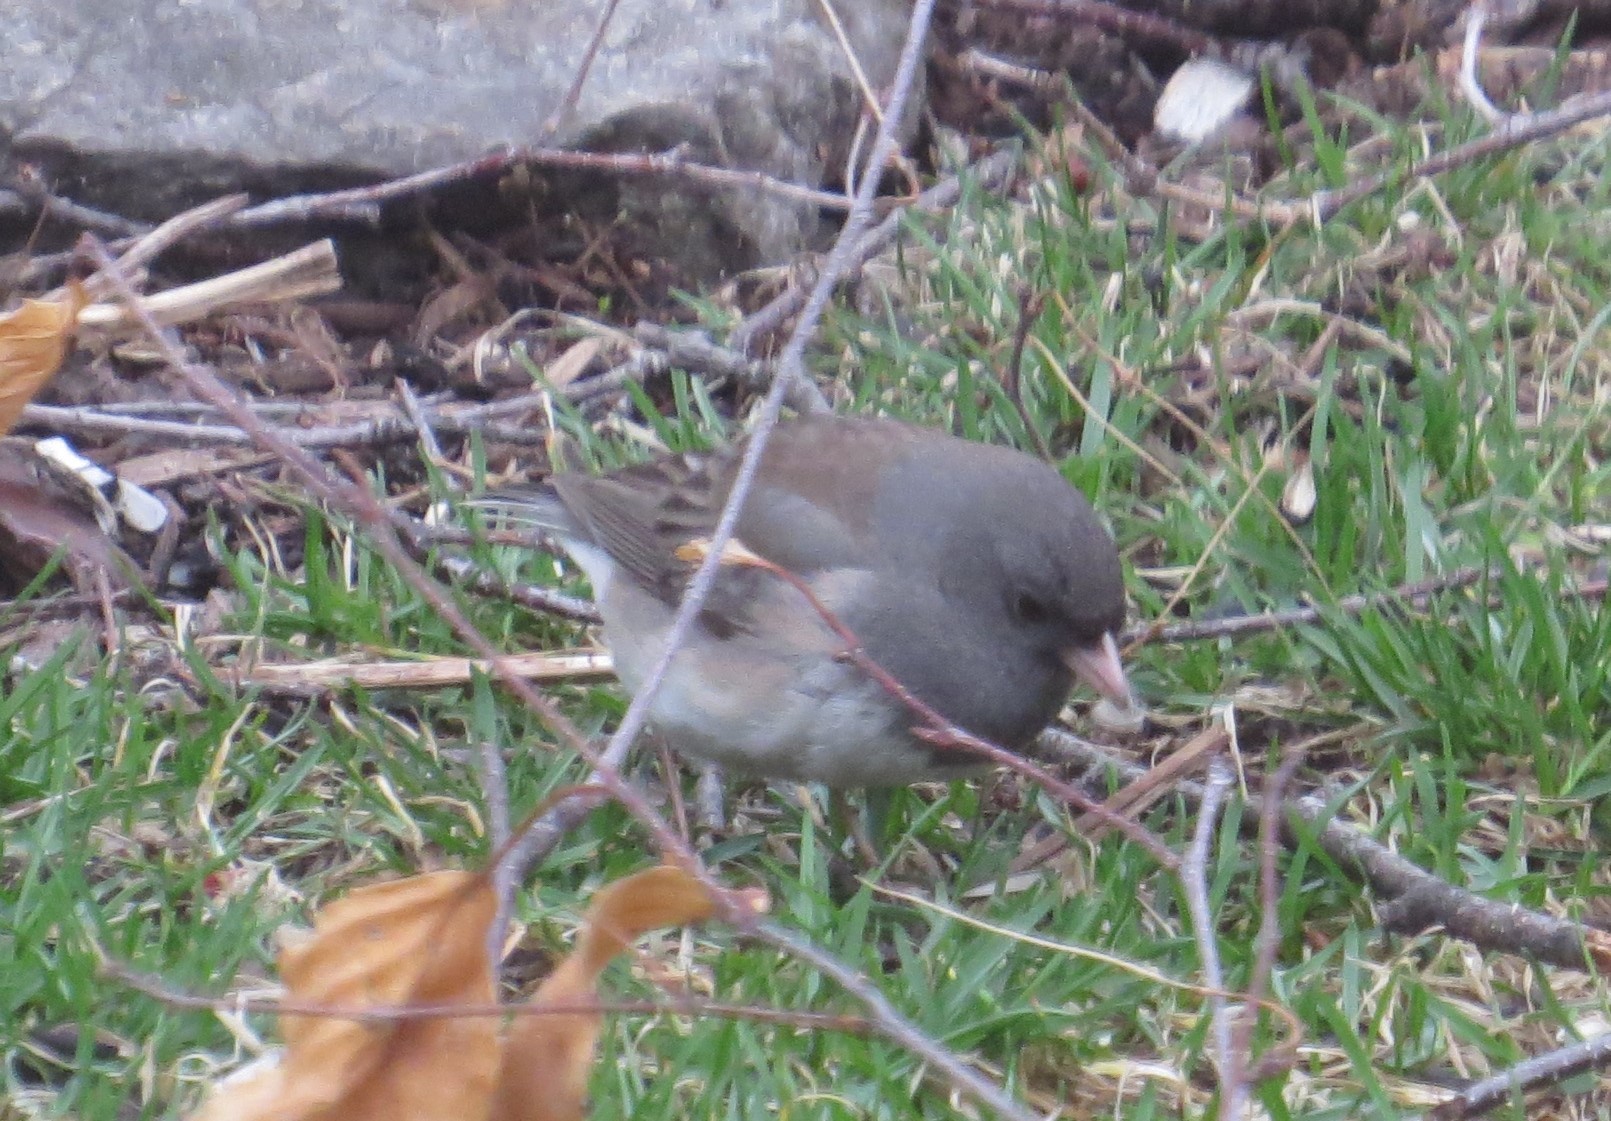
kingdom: Animalia
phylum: Chordata
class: Aves
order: Passeriformes
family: Passerellidae
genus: Junco
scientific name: Junco hyemalis
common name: Dark-eyed junco
